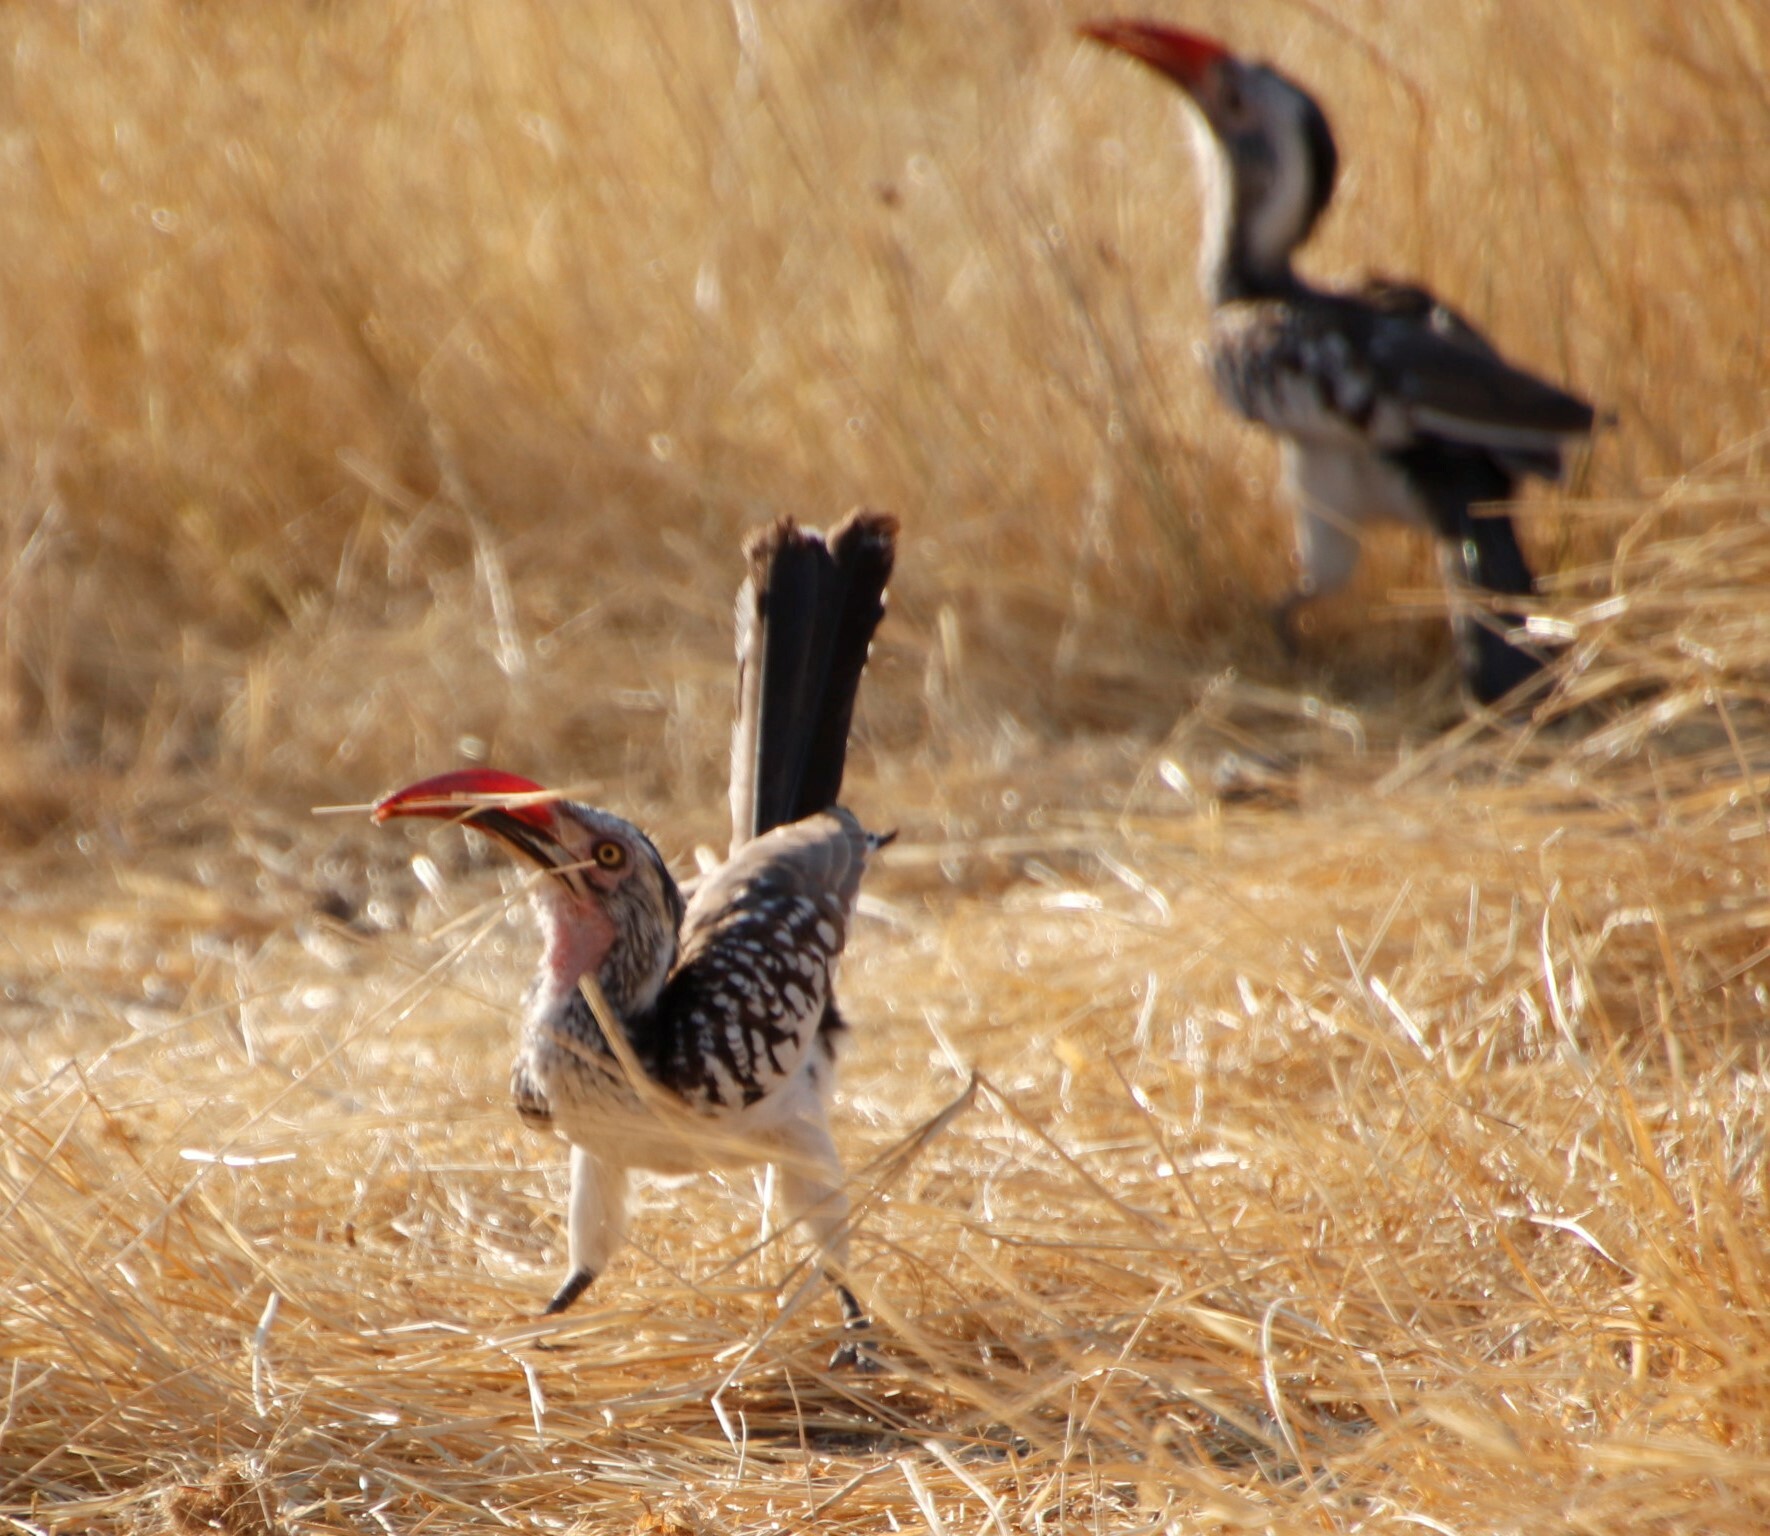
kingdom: Animalia
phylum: Chordata
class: Aves
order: Bucerotiformes
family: Bucerotidae
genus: Tockus
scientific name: Tockus rufirostris
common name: Southern red-billed hornbill
